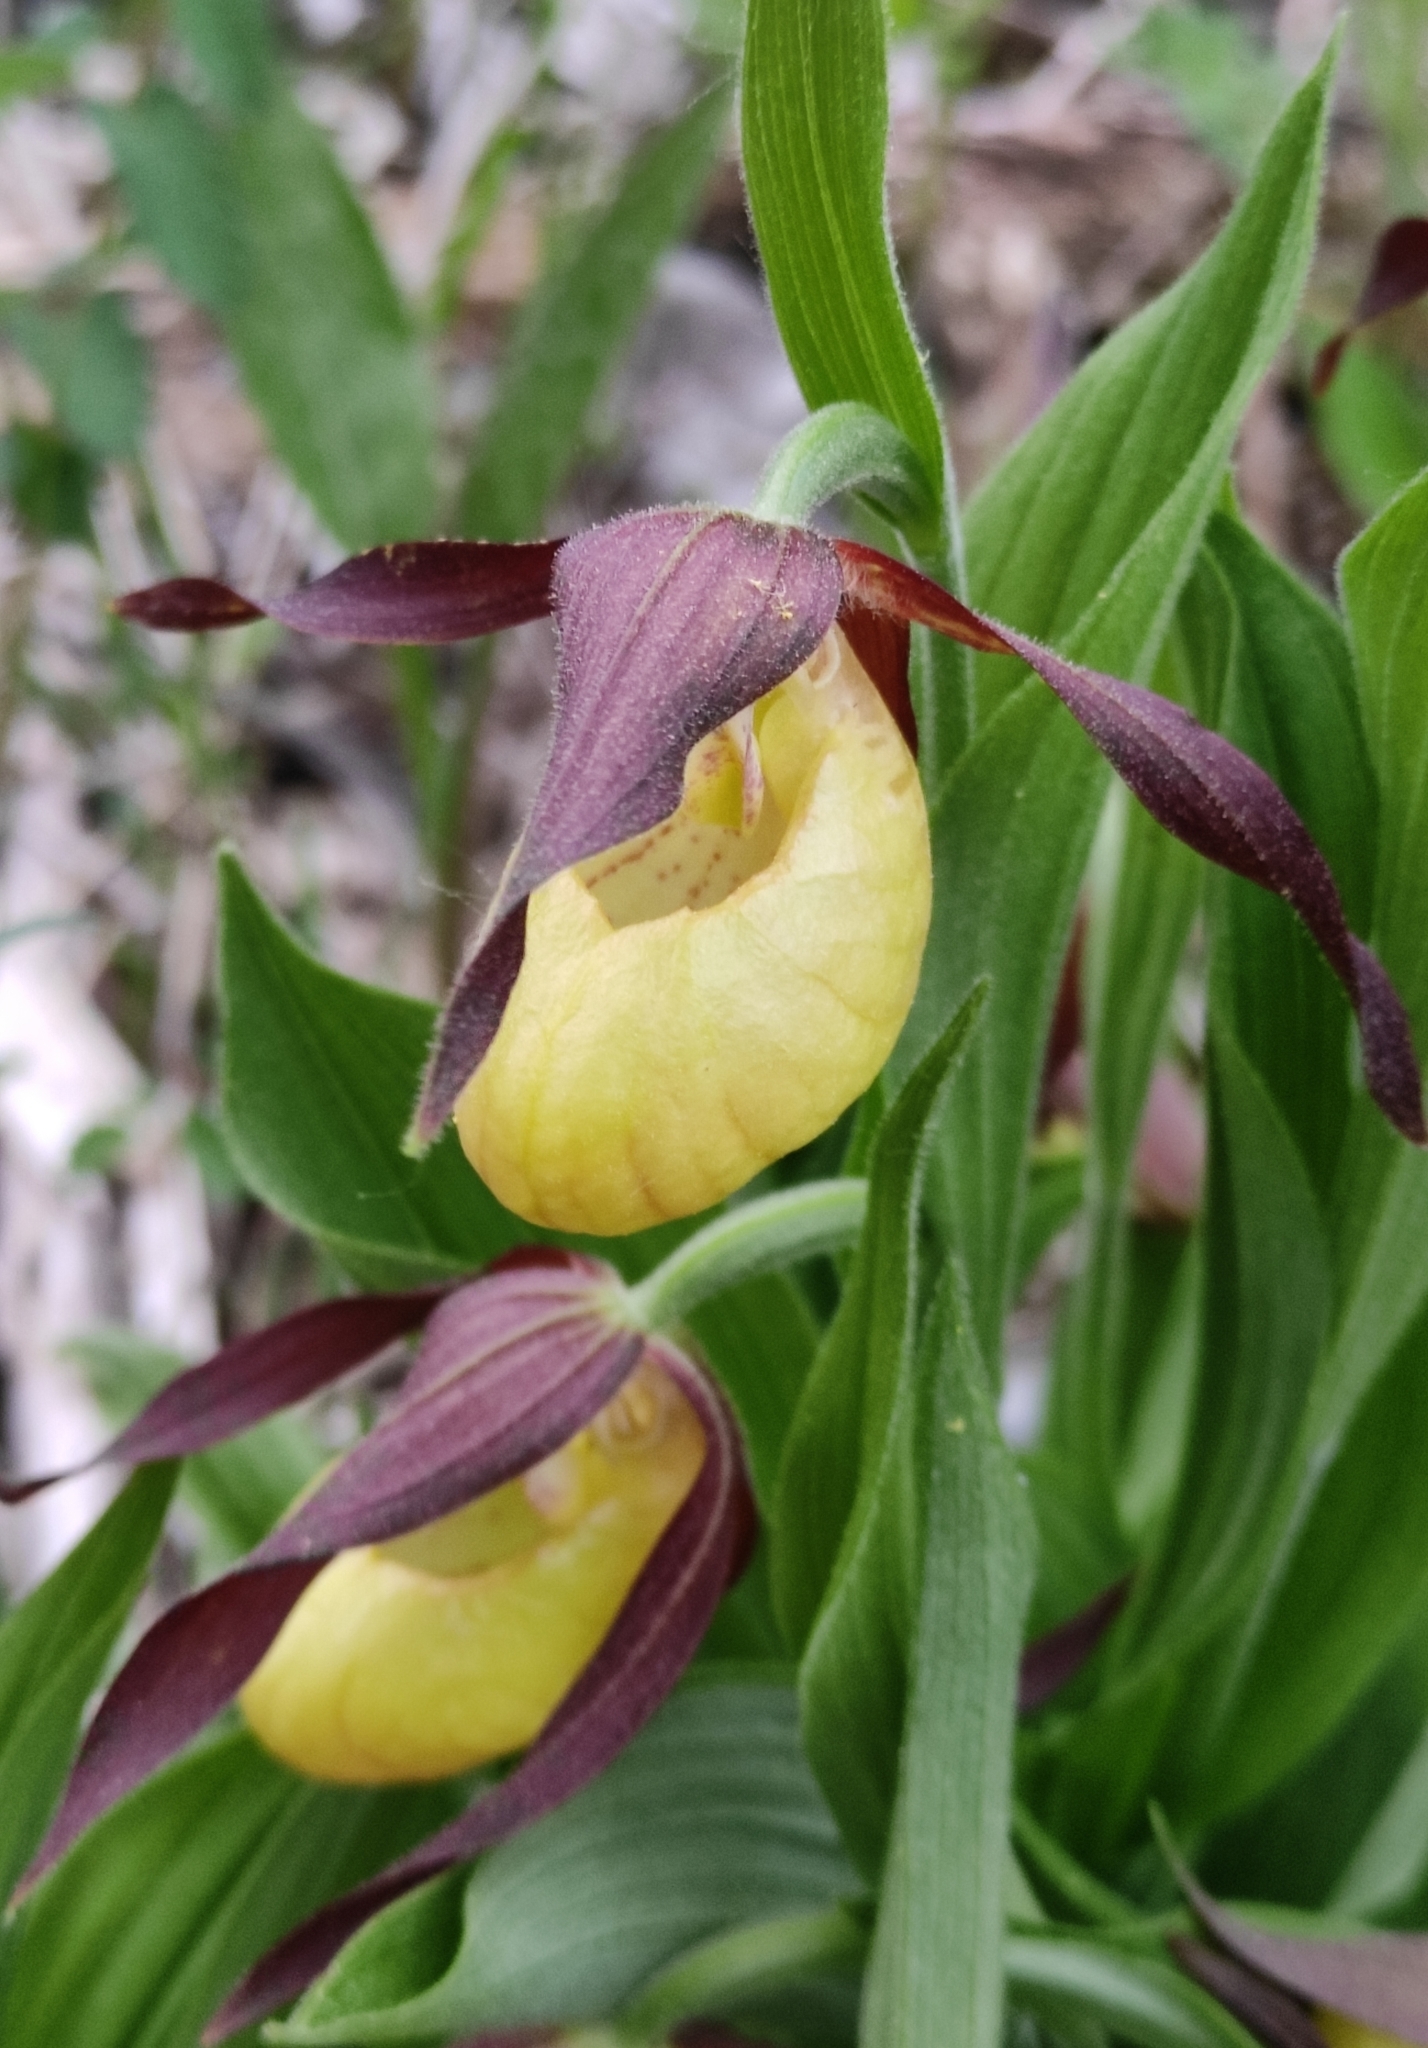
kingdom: Plantae
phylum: Tracheophyta
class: Liliopsida
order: Asparagales
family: Orchidaceae
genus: Cypripedium
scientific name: Cypripedium calceolus
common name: Lady's-slipper
